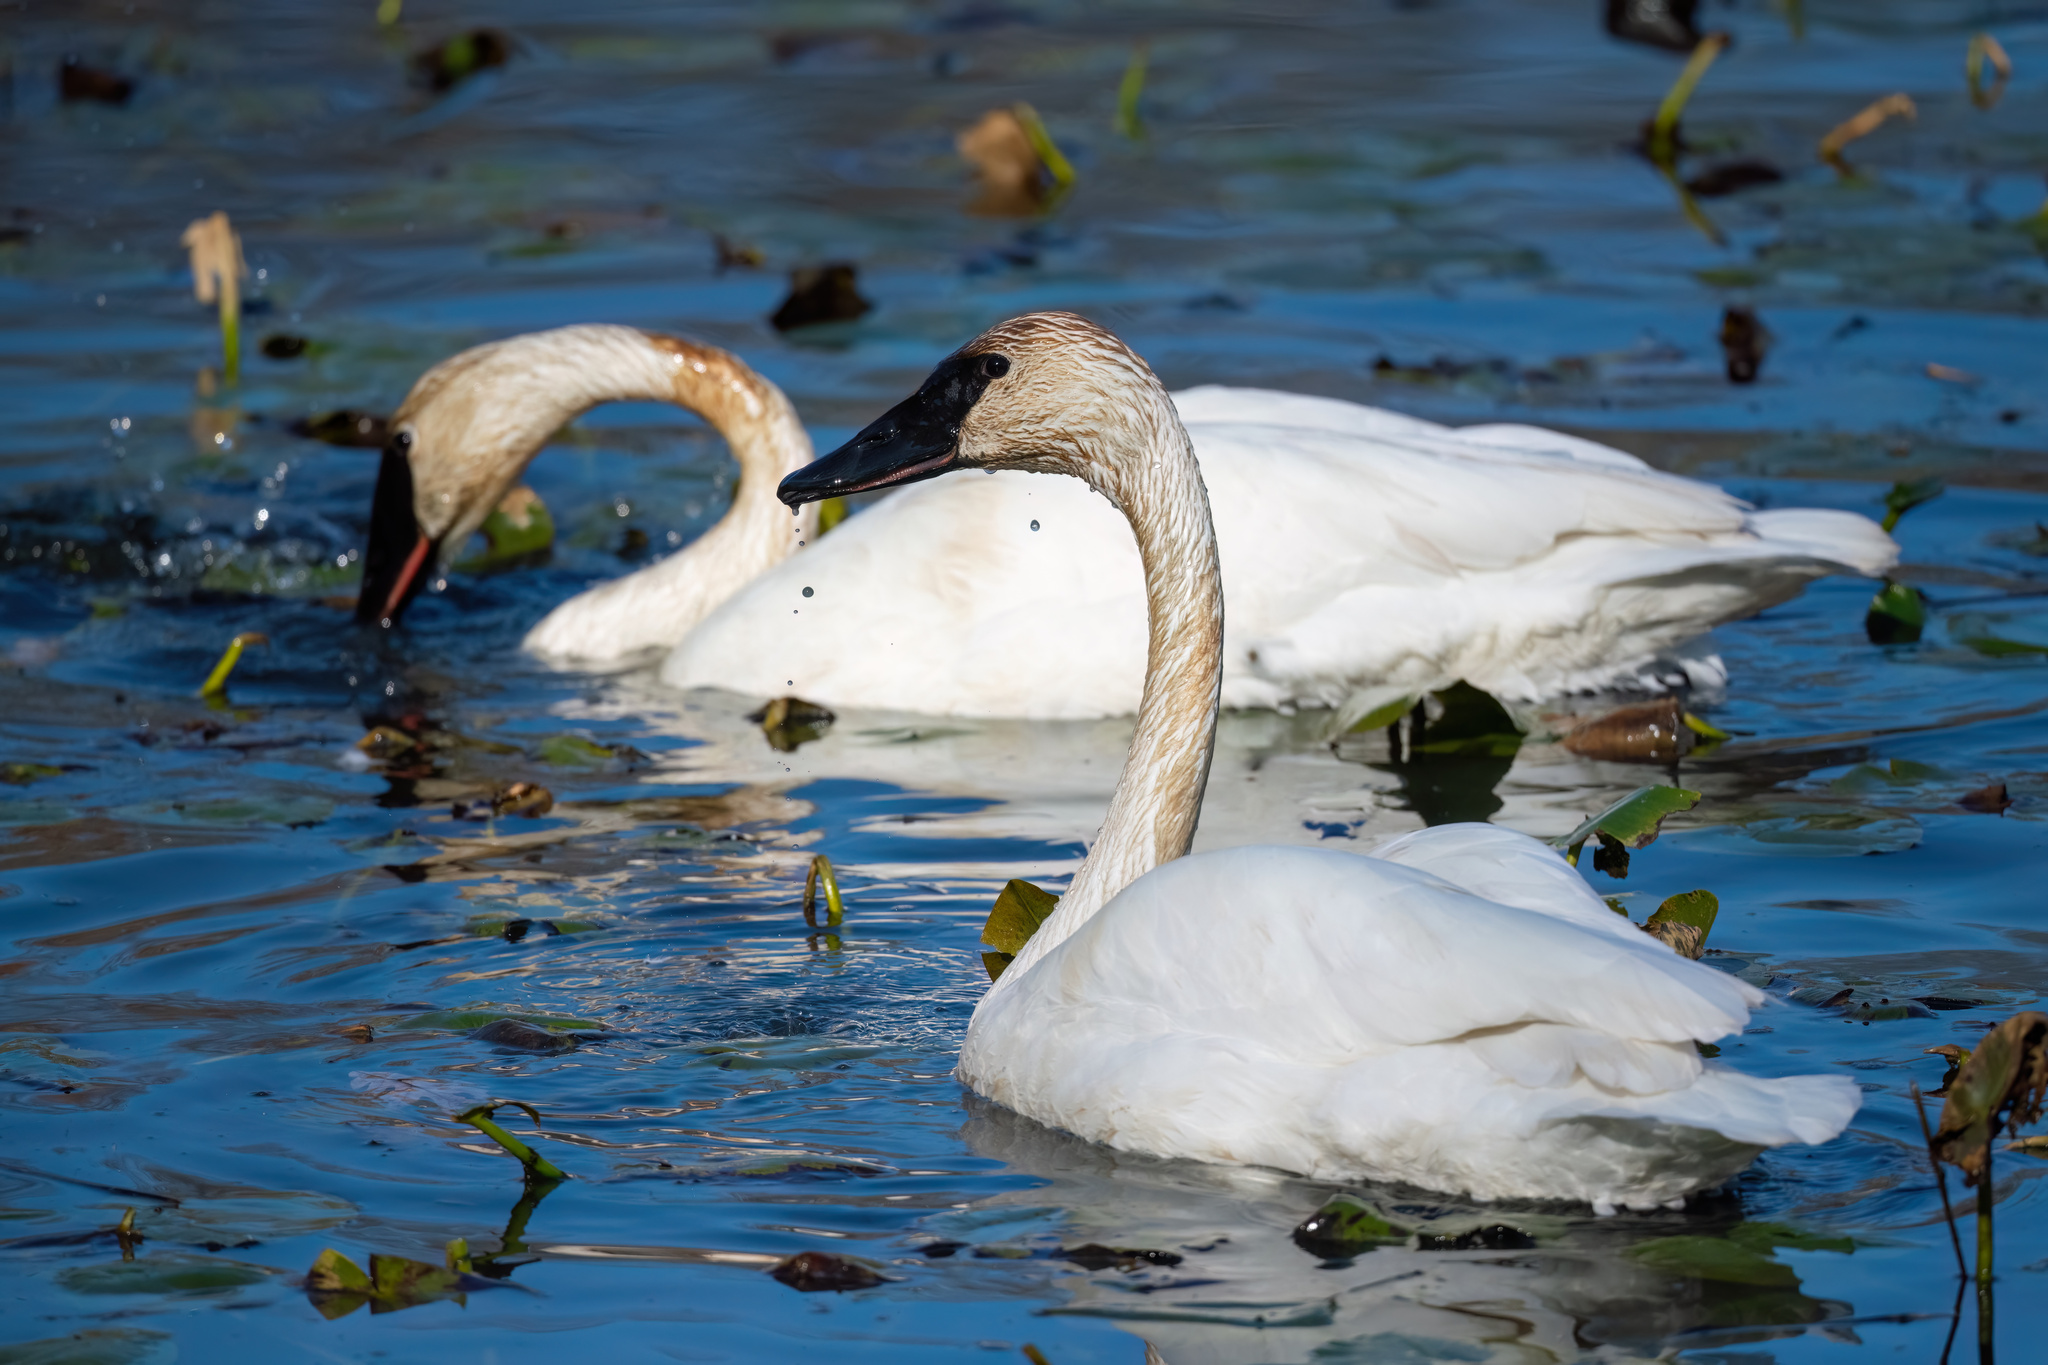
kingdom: Animalia
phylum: Chordata
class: Aves
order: Anseriformes
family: Anatidae
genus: Cygnus
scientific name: Cygnus buccinator
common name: Trumpeter swan
